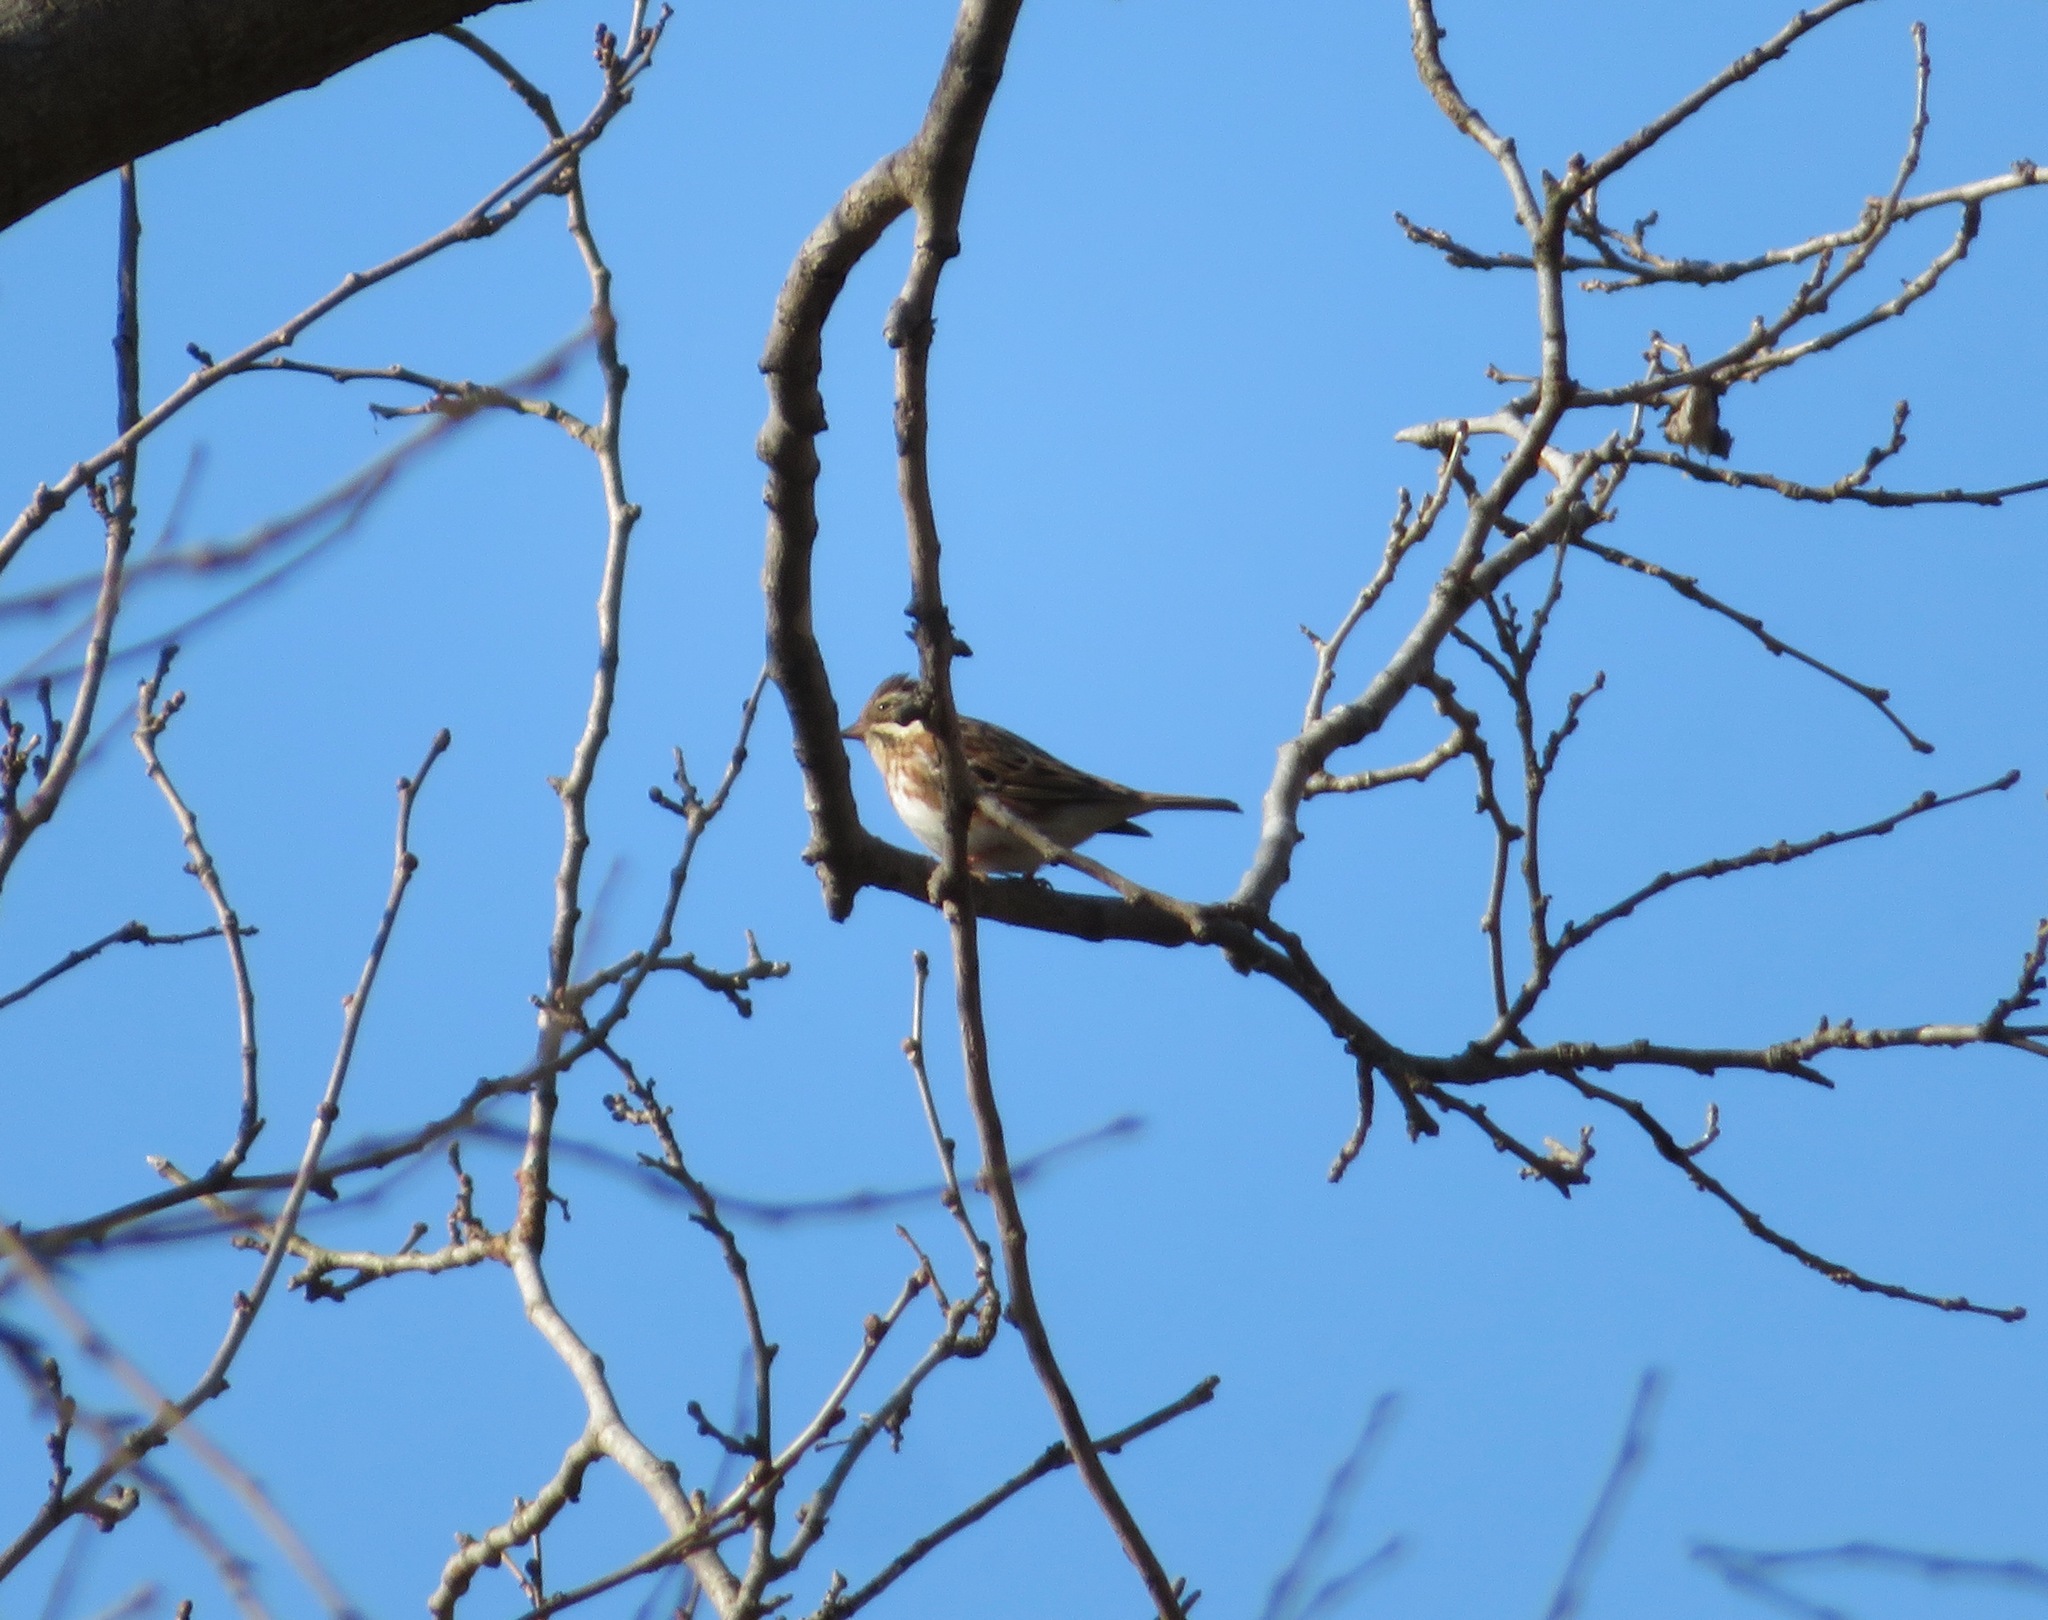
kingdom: Animalia
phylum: Chordata
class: Aves
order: Passeriformes
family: Emberizidae
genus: Emberiza
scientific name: Emberiza rustica
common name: Rustic bunting
